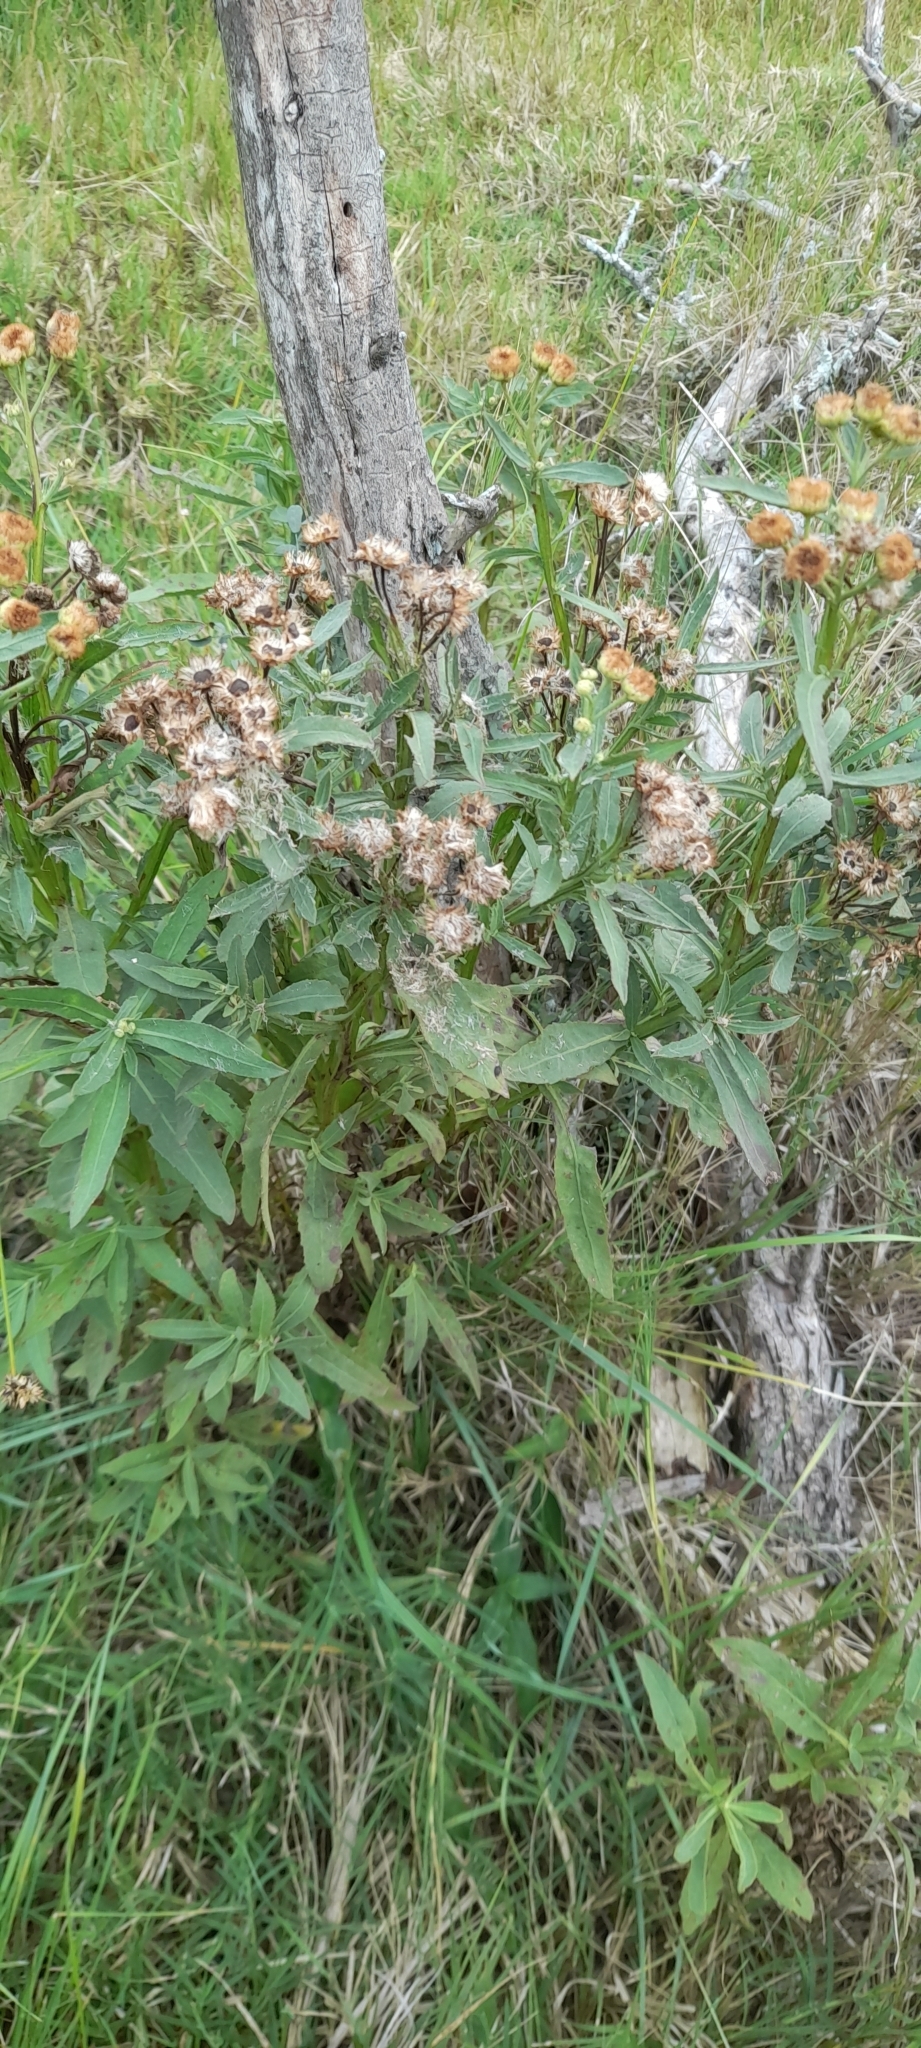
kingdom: Plantae
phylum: Tracheophyta
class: Magnoliopsida
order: Asterales
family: Asteraceae
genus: Pluchea
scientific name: Pluchea sagittalis
